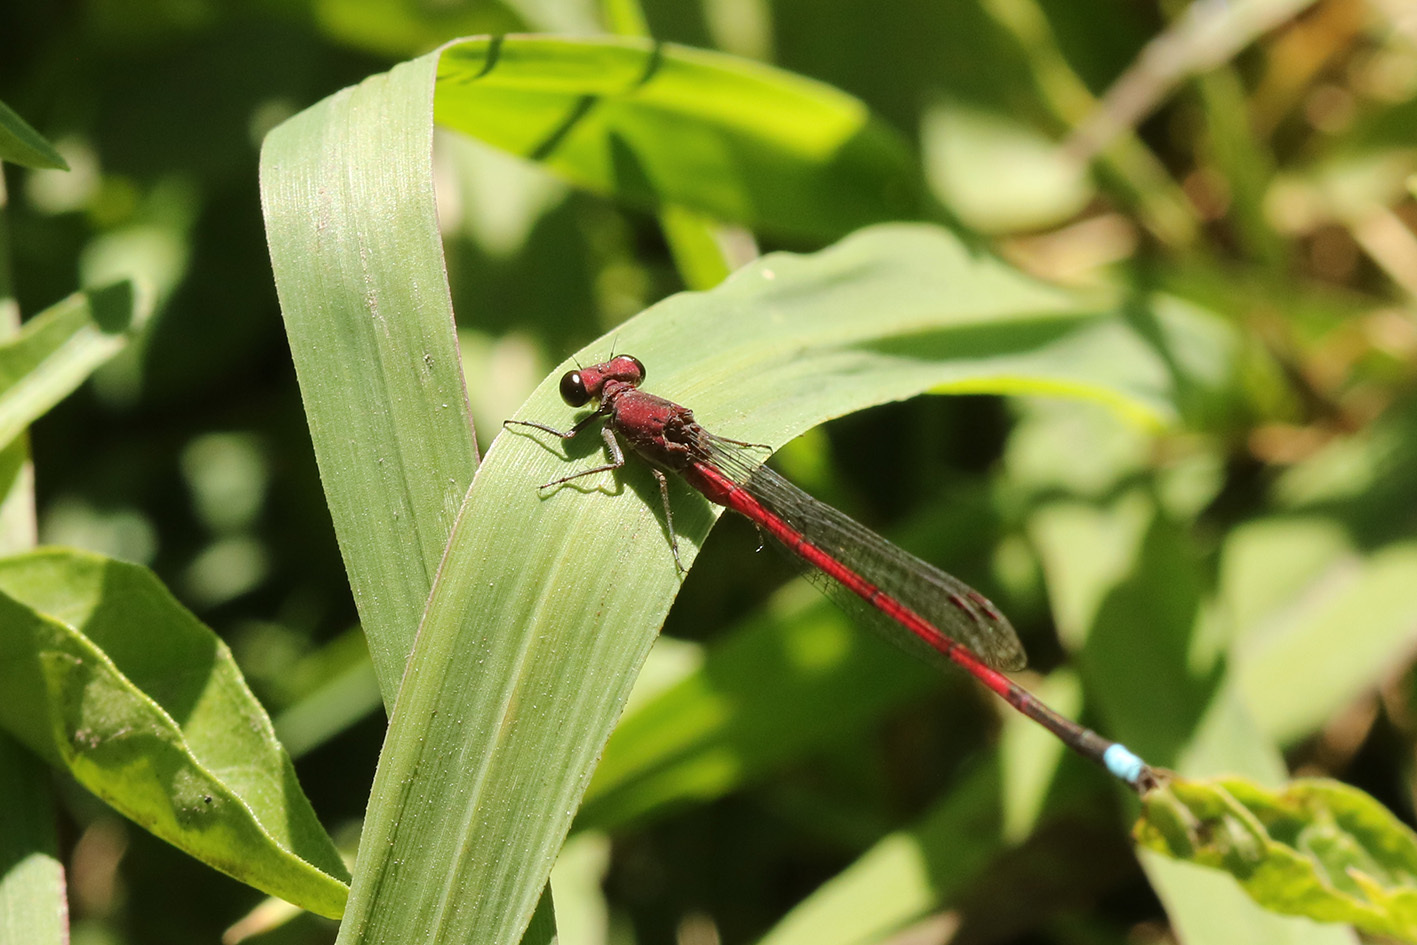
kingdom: Animalia
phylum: Arthropoda
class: Insecta
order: Odonata
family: Coenagrionidae
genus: Oxyagrion
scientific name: Oxyagrion terminale
